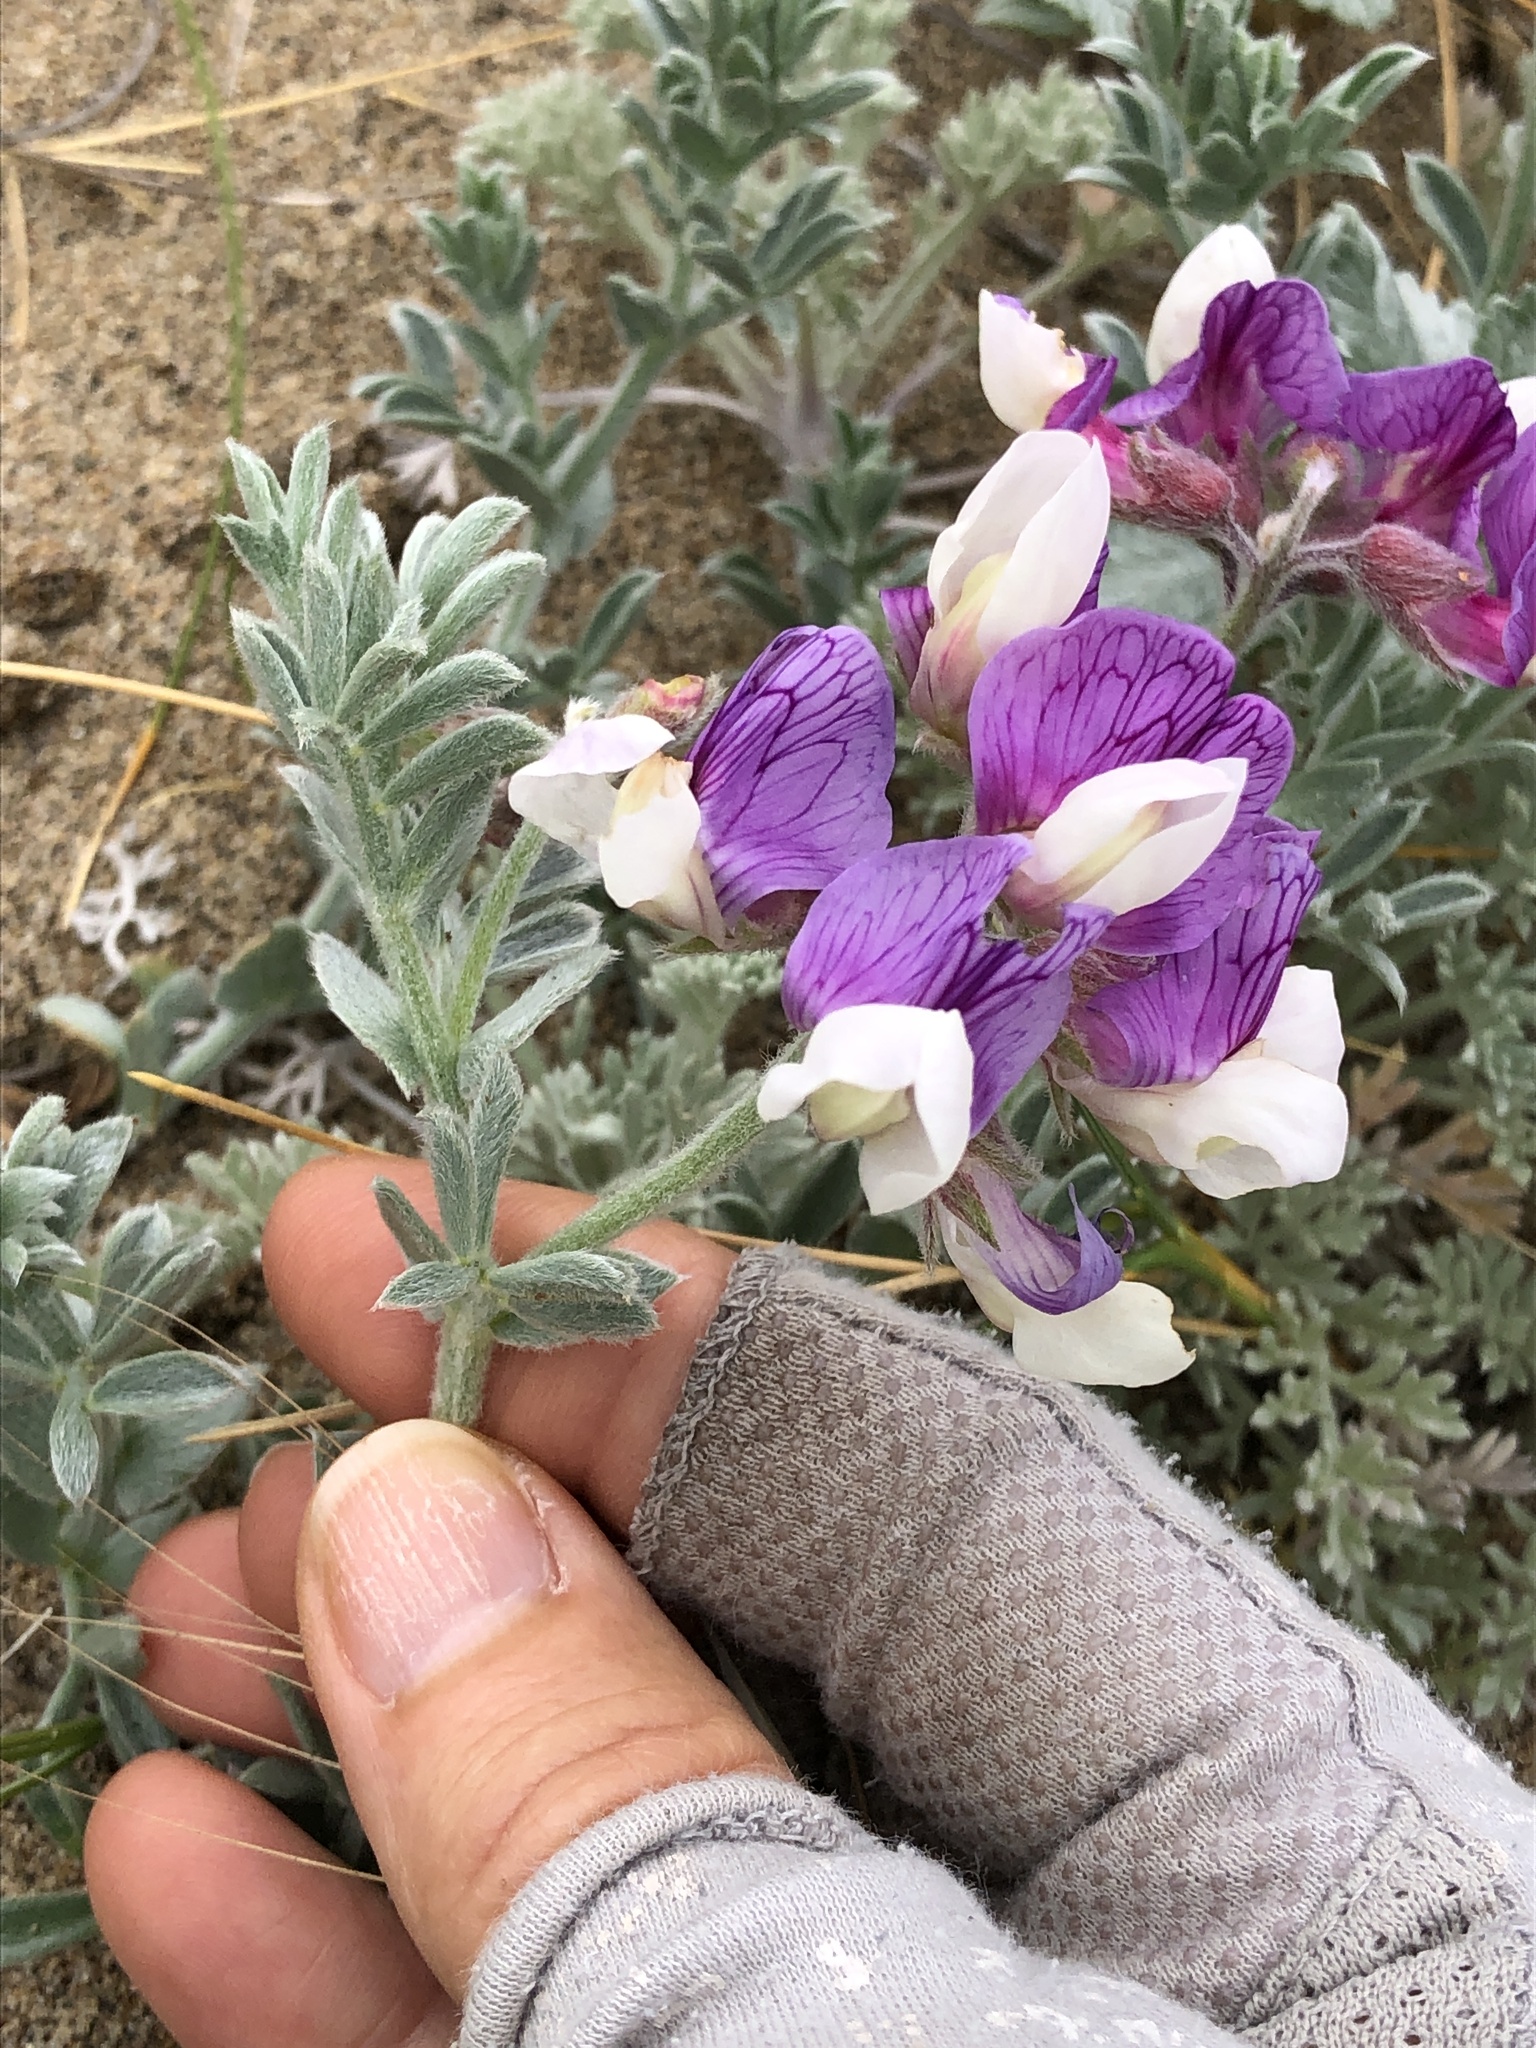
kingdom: Plantae
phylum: Tracheophyta
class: Magnoliopsida
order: Fabales
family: Fabaceae
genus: Lathyrus
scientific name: Lathyrus littoralis
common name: Dune sweet pea
